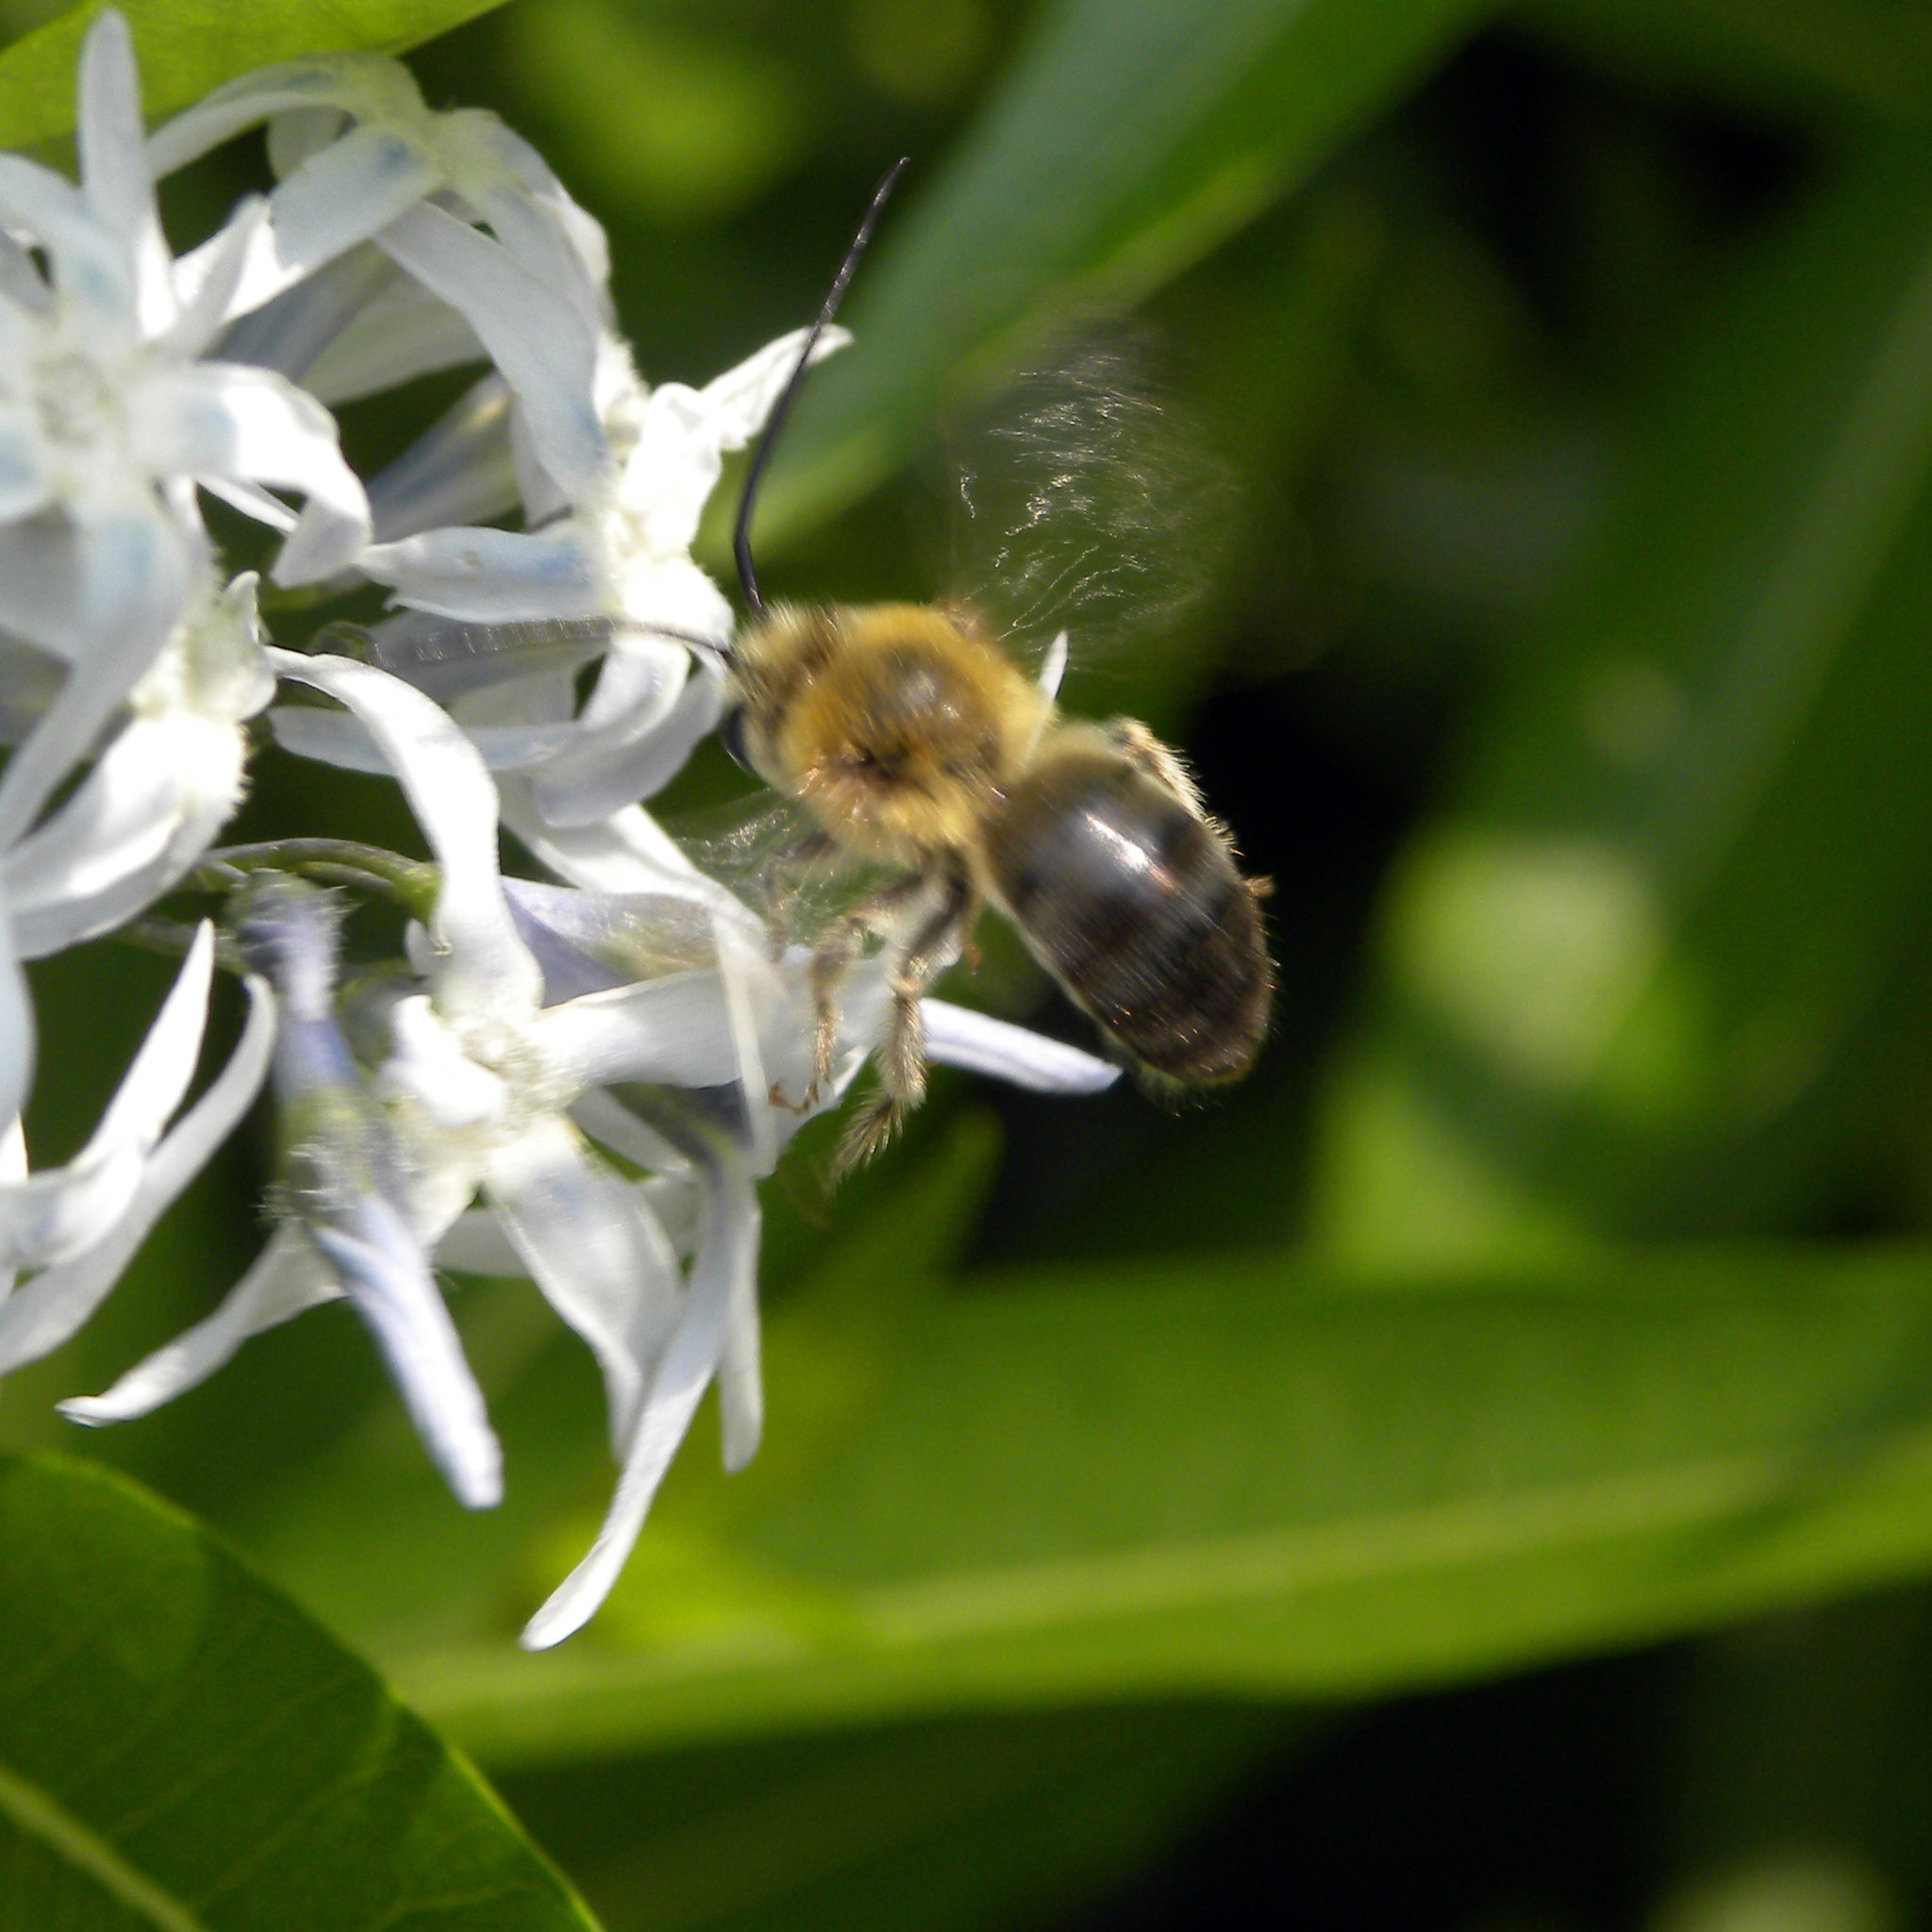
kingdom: Animalia
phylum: Arthropoda
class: Insecta
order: Hymenoptera
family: Apidae
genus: Synhalonia
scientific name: Synhalonia
